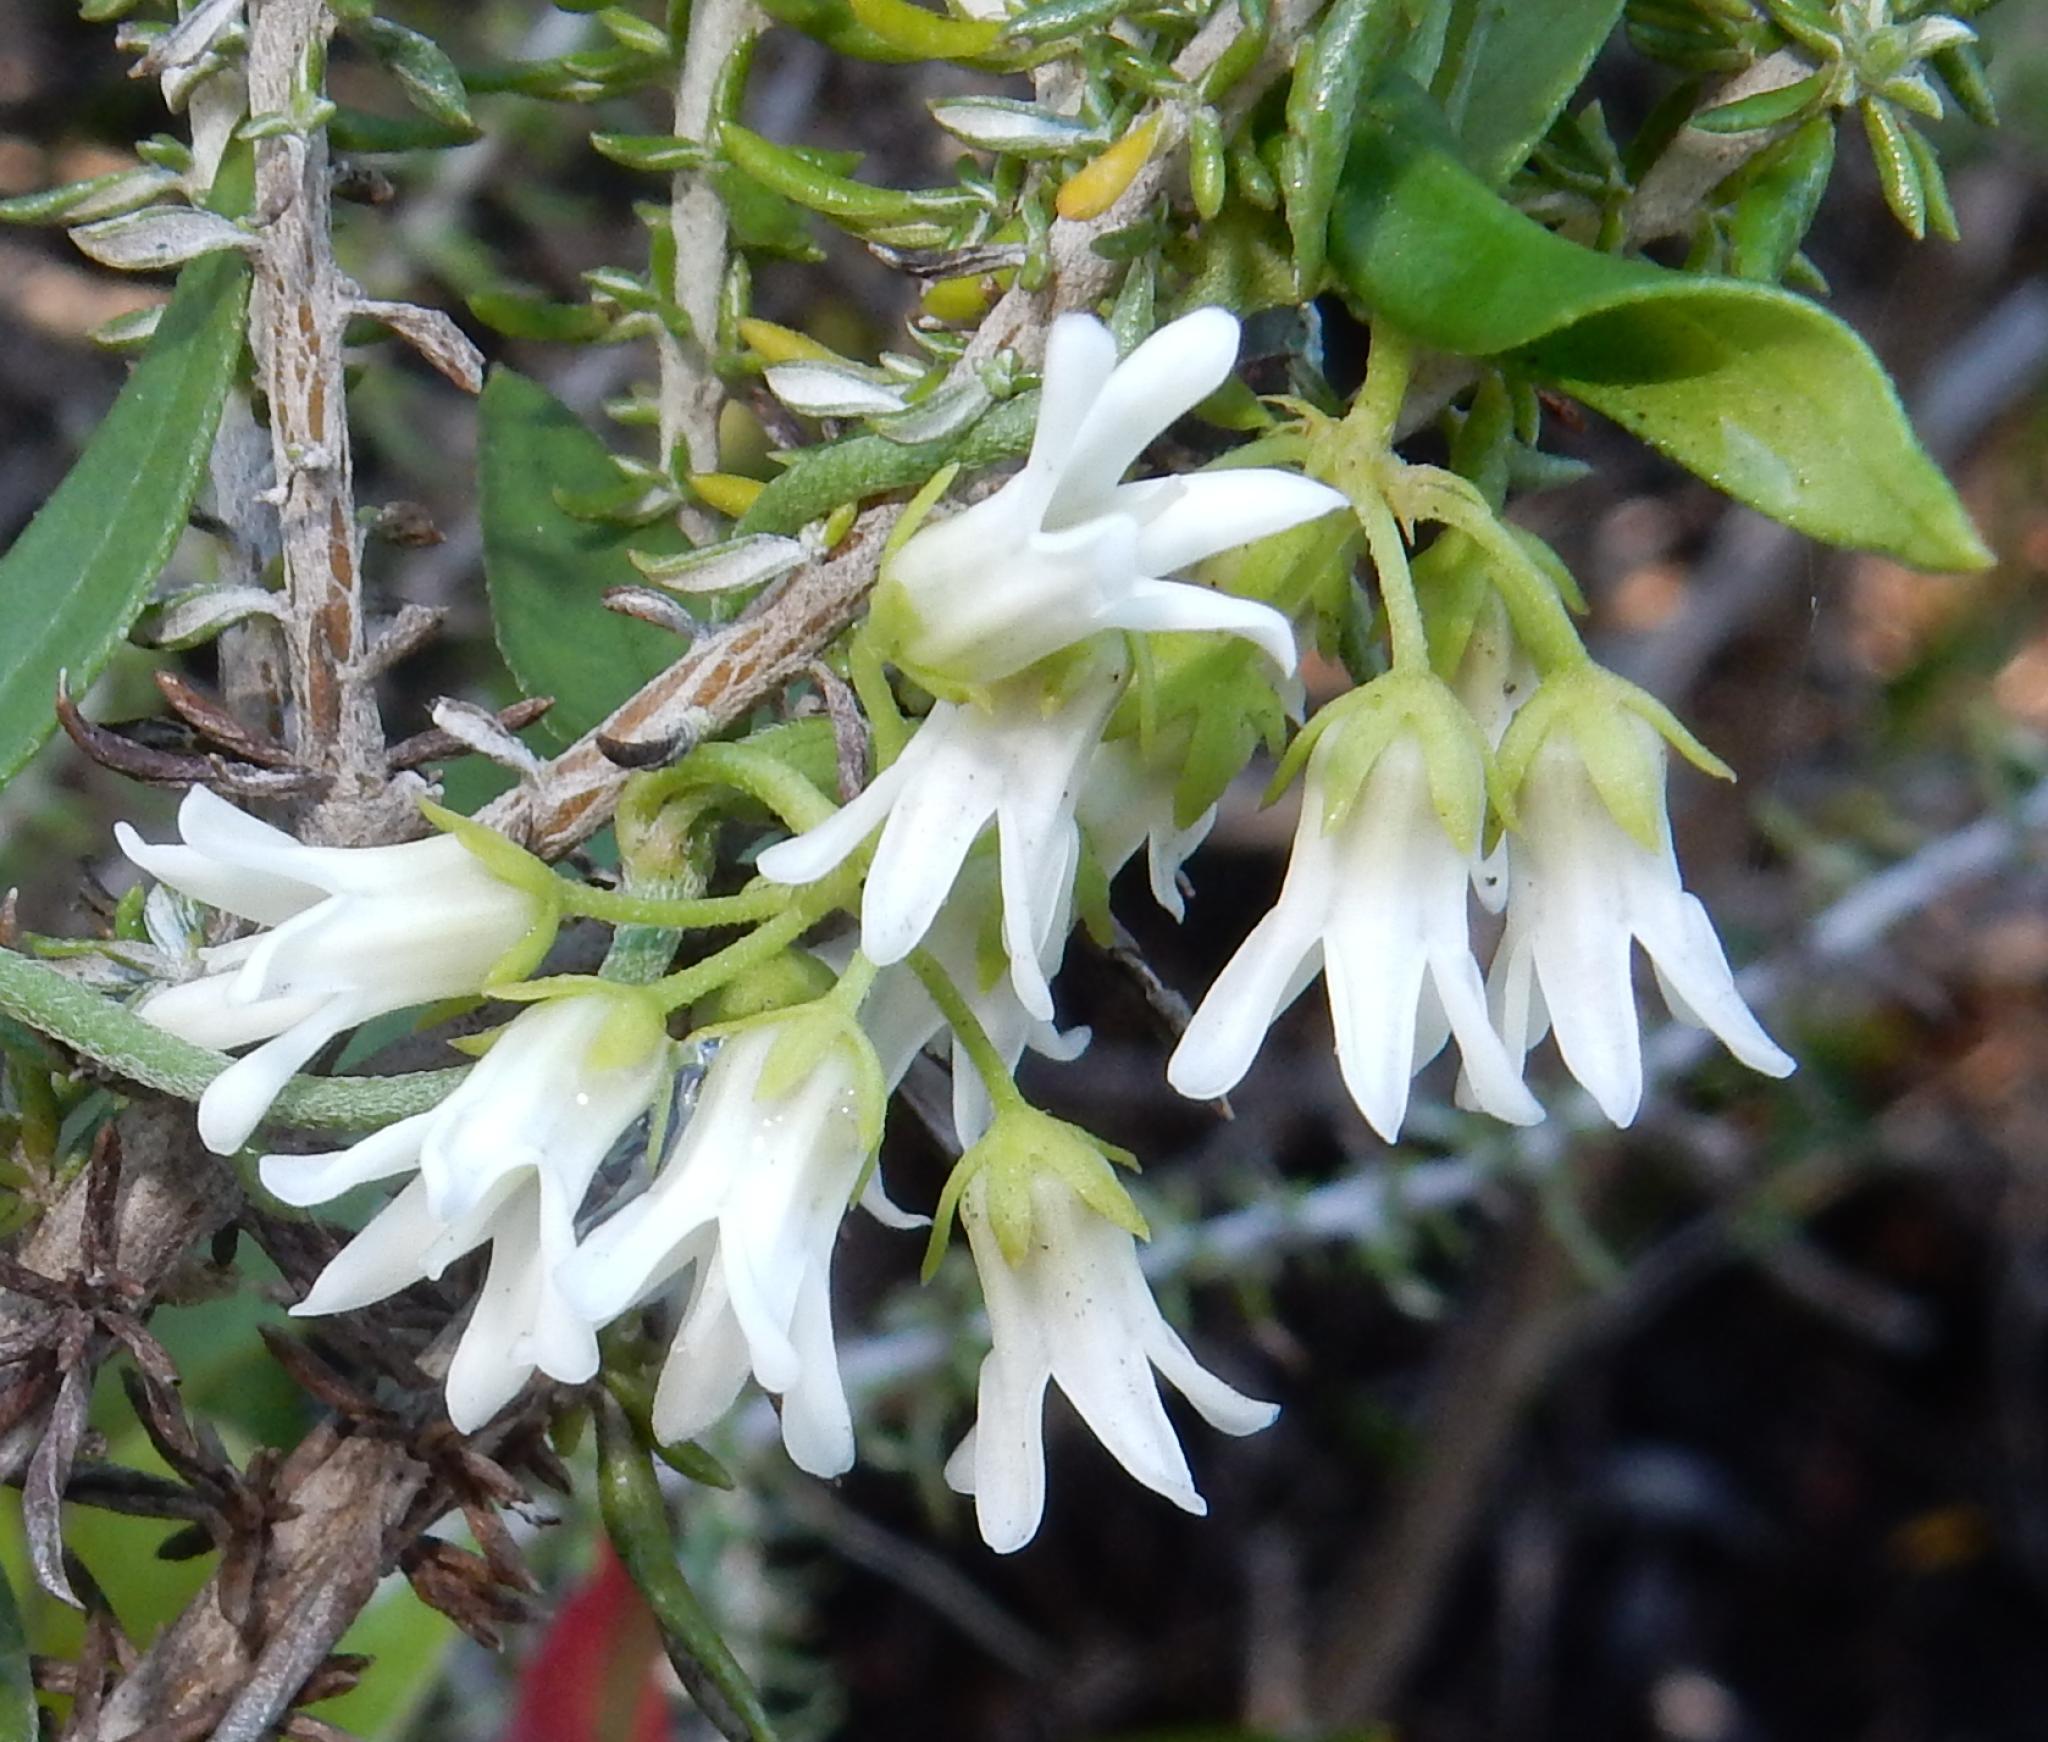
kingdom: Plantae
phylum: Tracheophyta
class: Magnoliopsida
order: Gentianales
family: Apocynaceae
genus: Astephanus
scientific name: Astephanus triflorus
